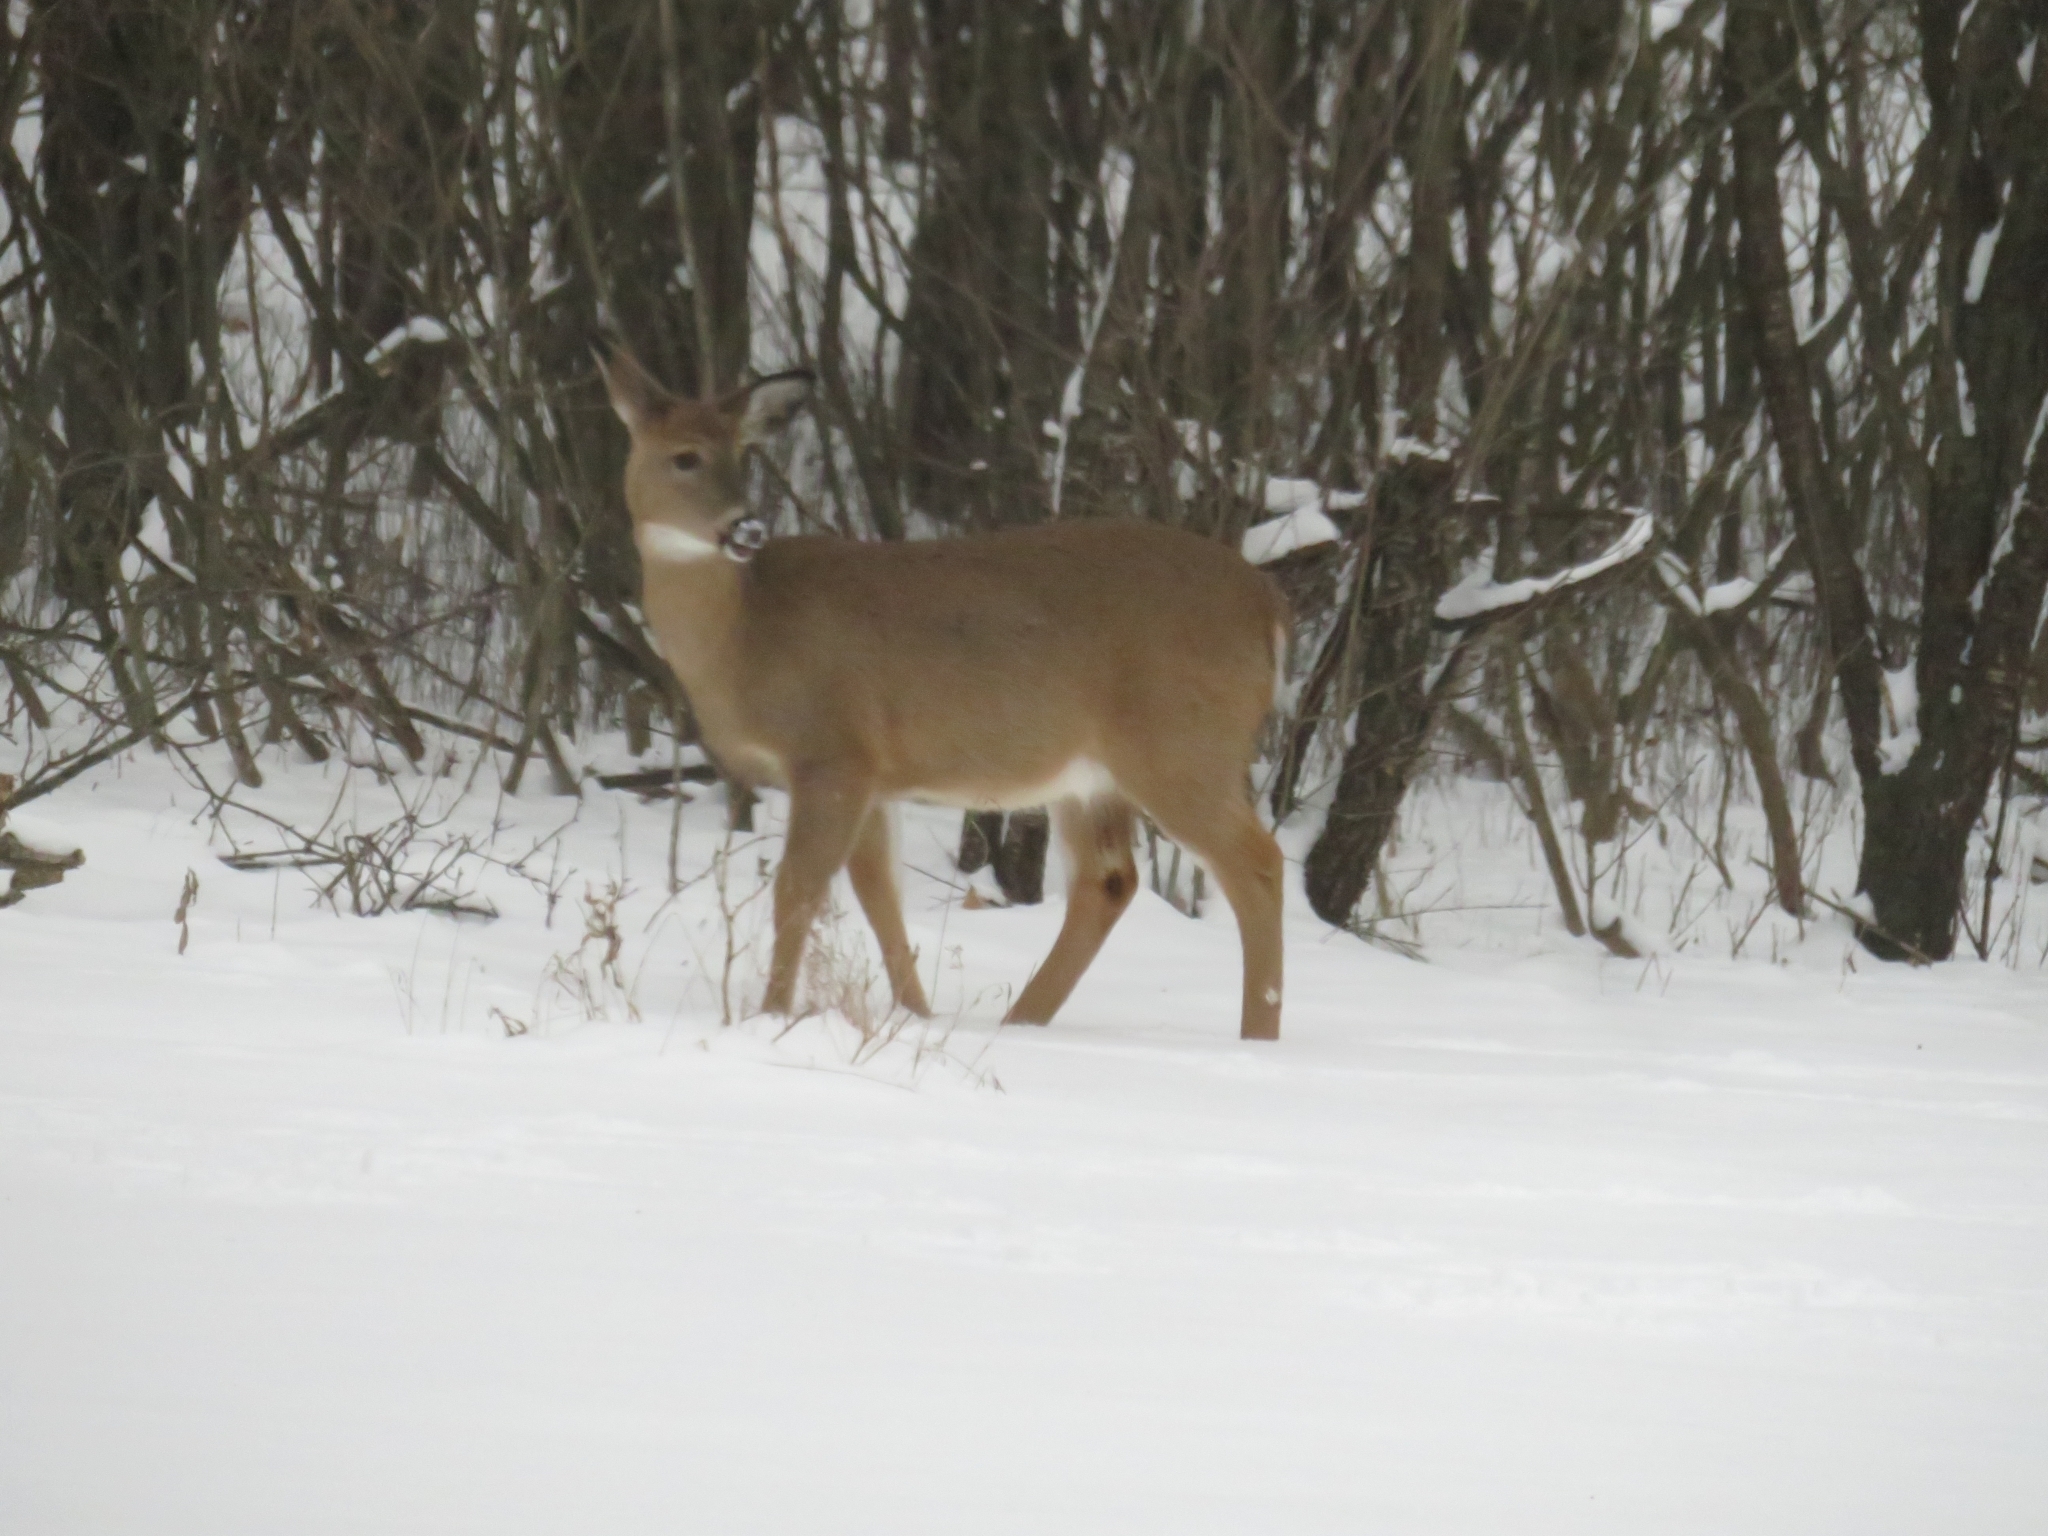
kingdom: Animalia
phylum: Chordata
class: Mammalia
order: Artiodactyla
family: Cervidae
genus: Odocoileus
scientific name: Odocoileus virginianus
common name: White-tailed deer
